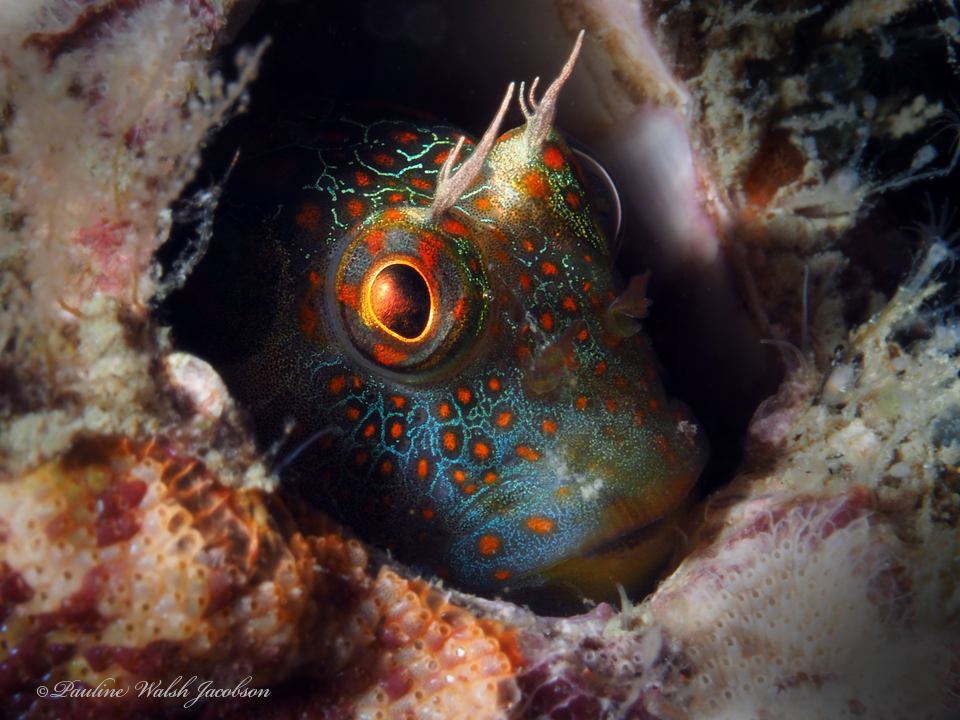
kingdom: Animalia
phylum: Chordata
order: Perciformes
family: Blenniidae
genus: Hypsoblennius
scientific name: Hypsoblennius invemar
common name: Tessellated blenny
